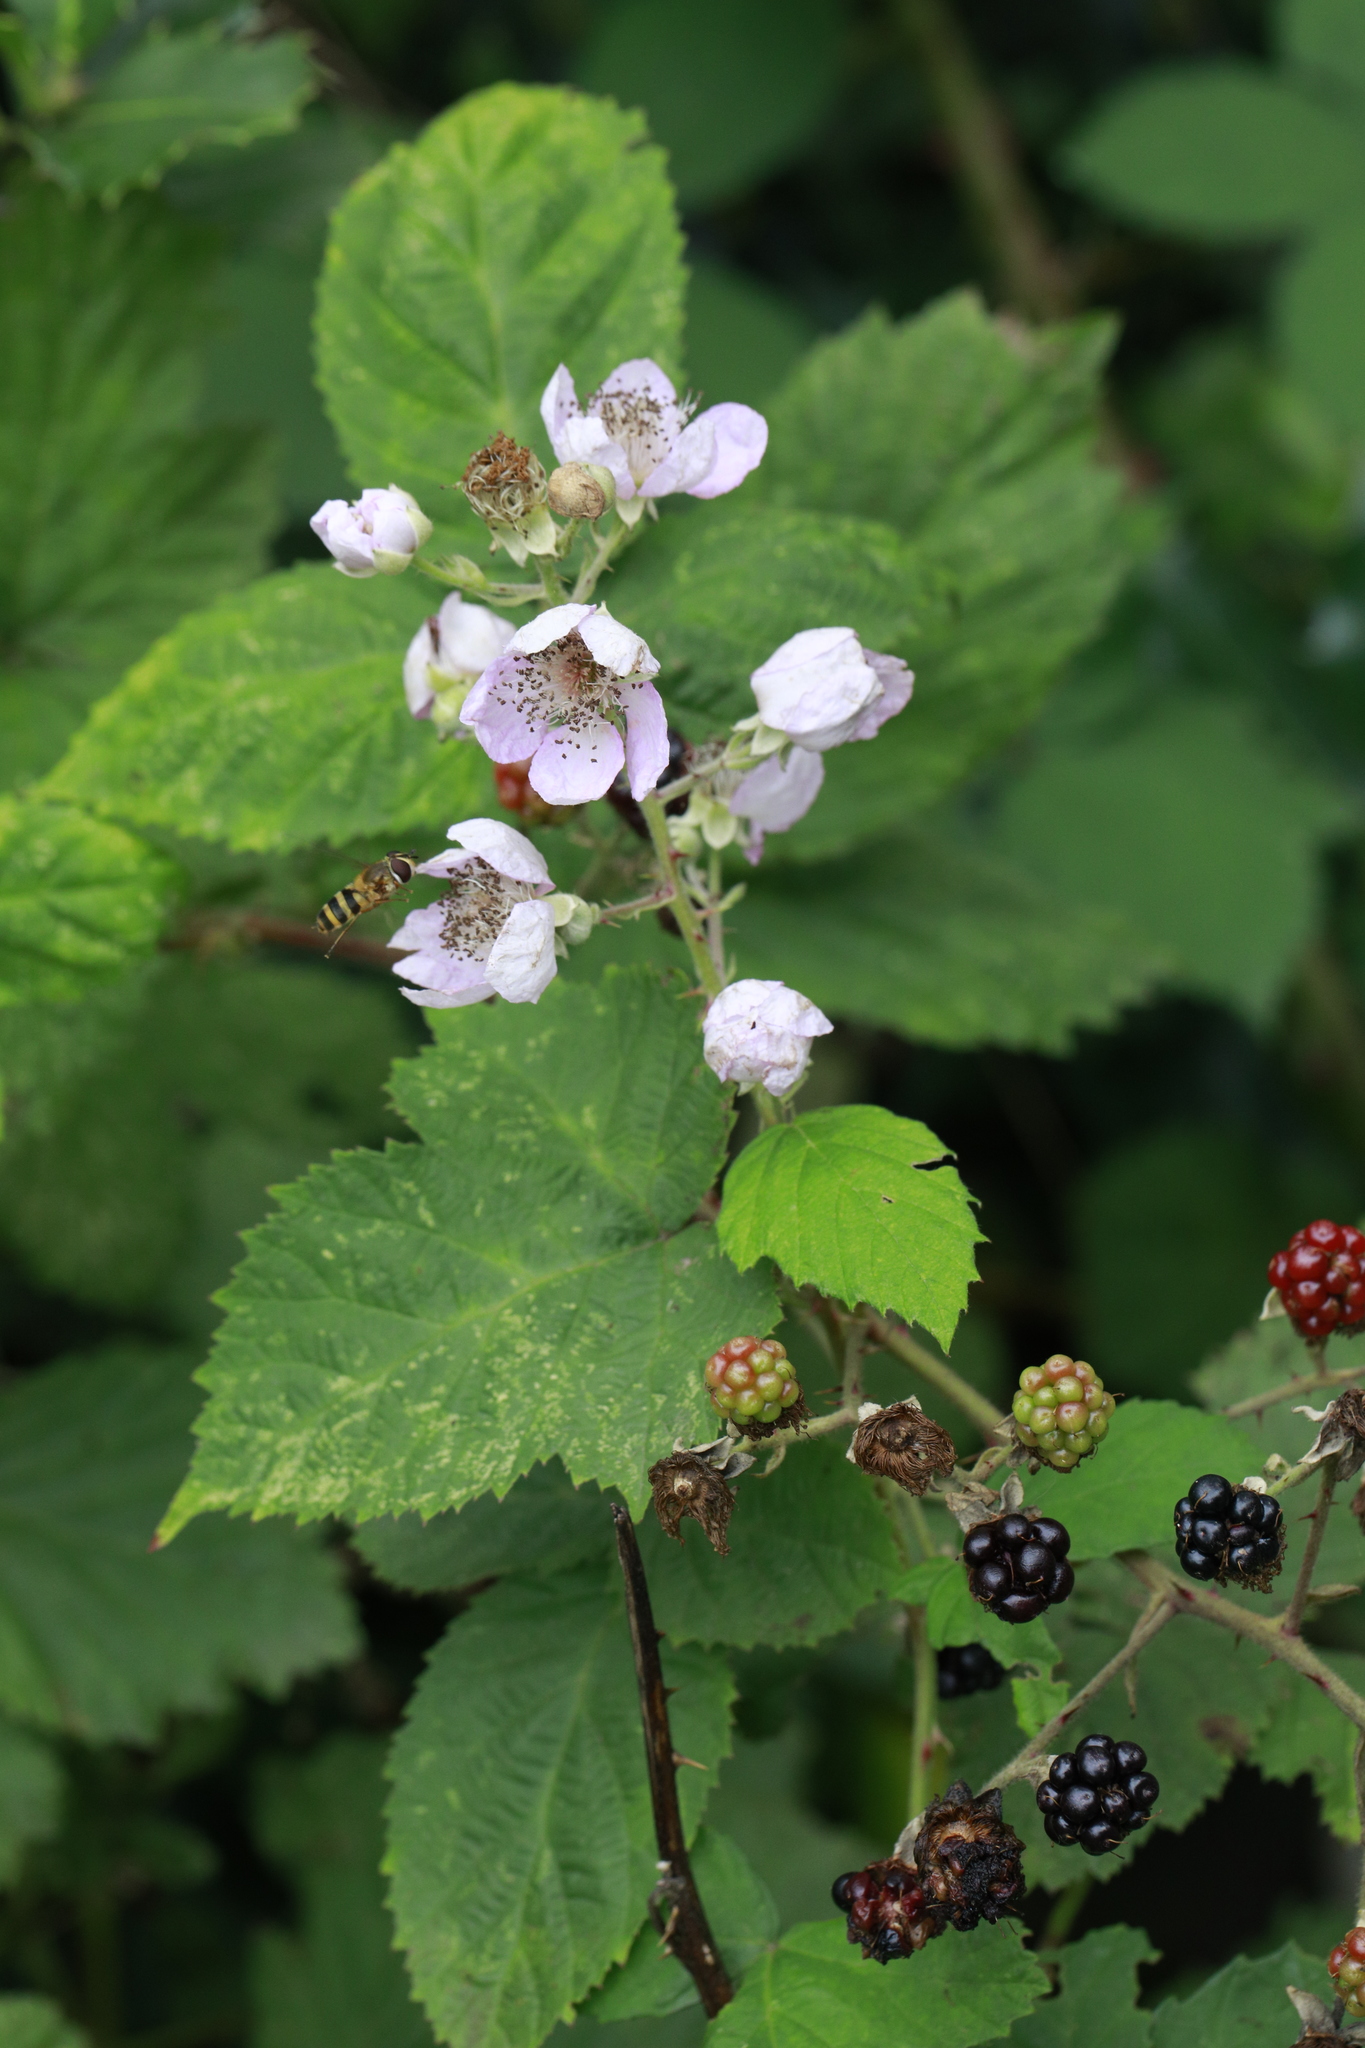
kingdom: Plantae
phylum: Tracheophyta
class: Magnoliopsida
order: Rosales
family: Rosaceae
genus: Rubus
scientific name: Rubus armeniacus
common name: Himalayan blackberry
